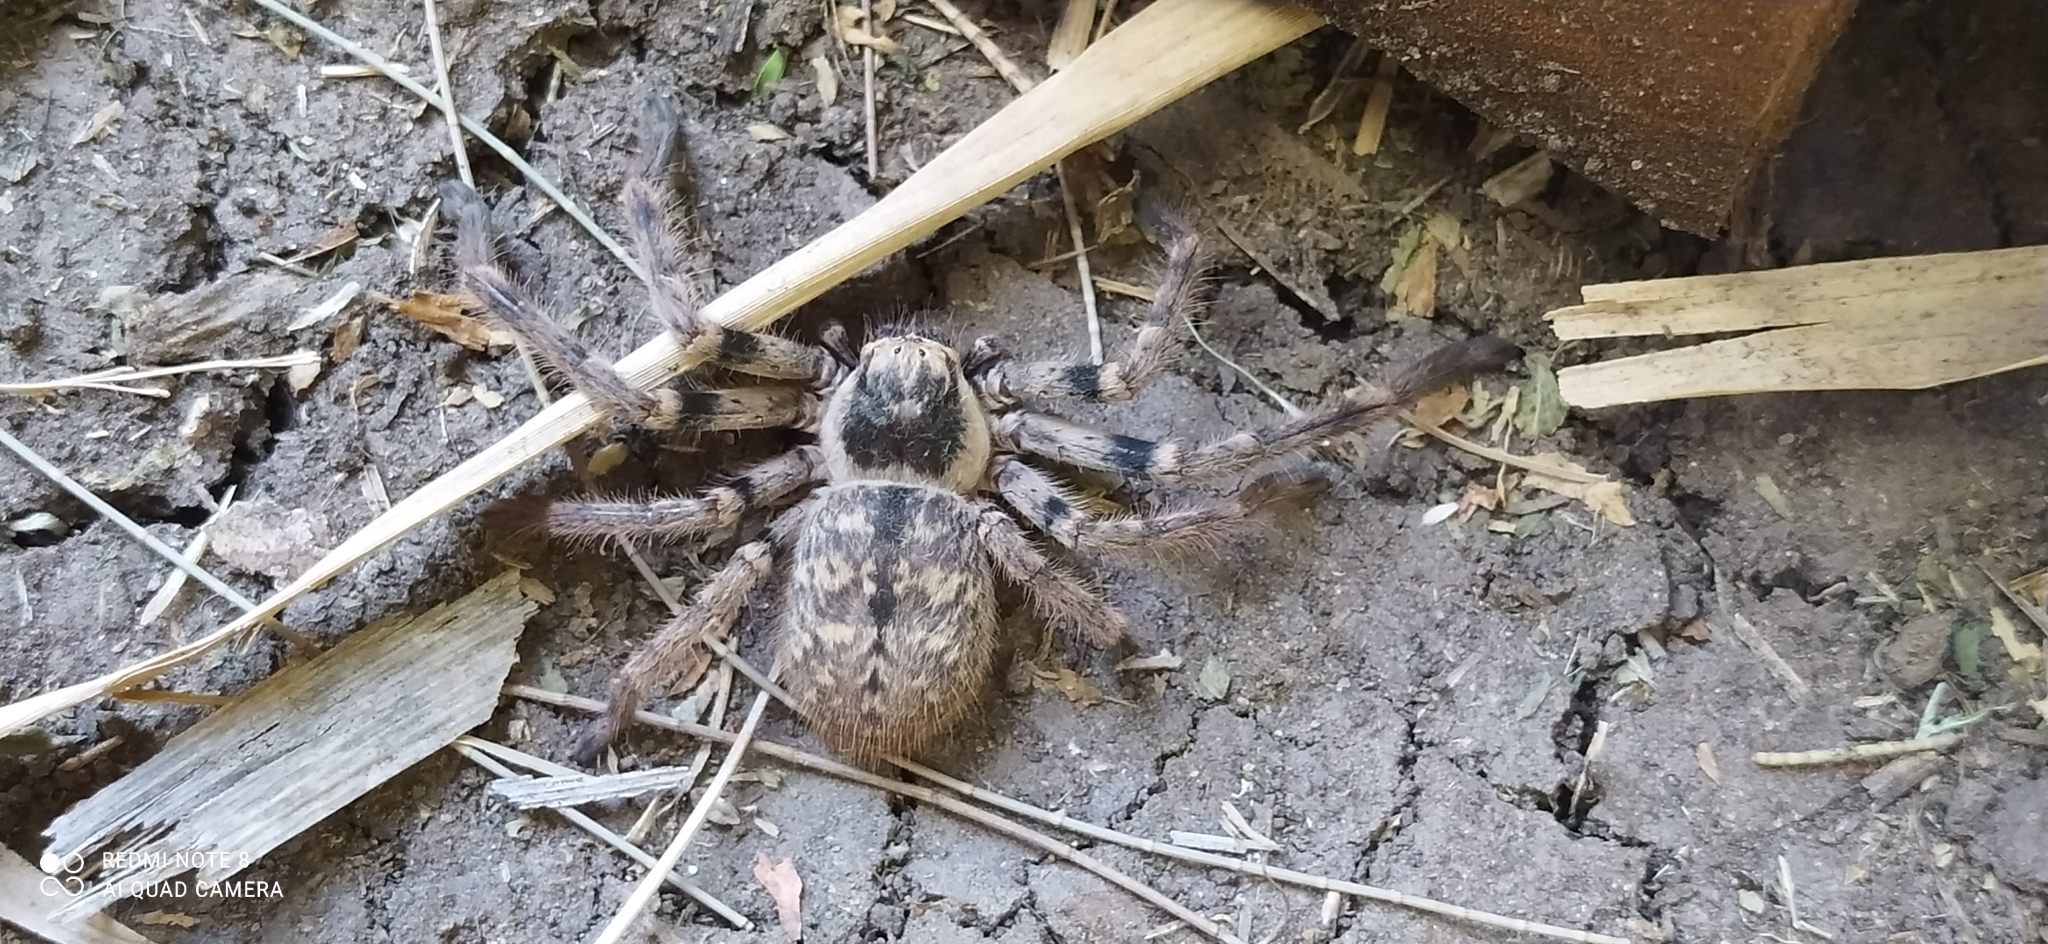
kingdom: Animalia
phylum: Arthropoda
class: Arachnida
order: Araneae
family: Sparassidae
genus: Polybetes
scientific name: Polybetes pythagoricus
